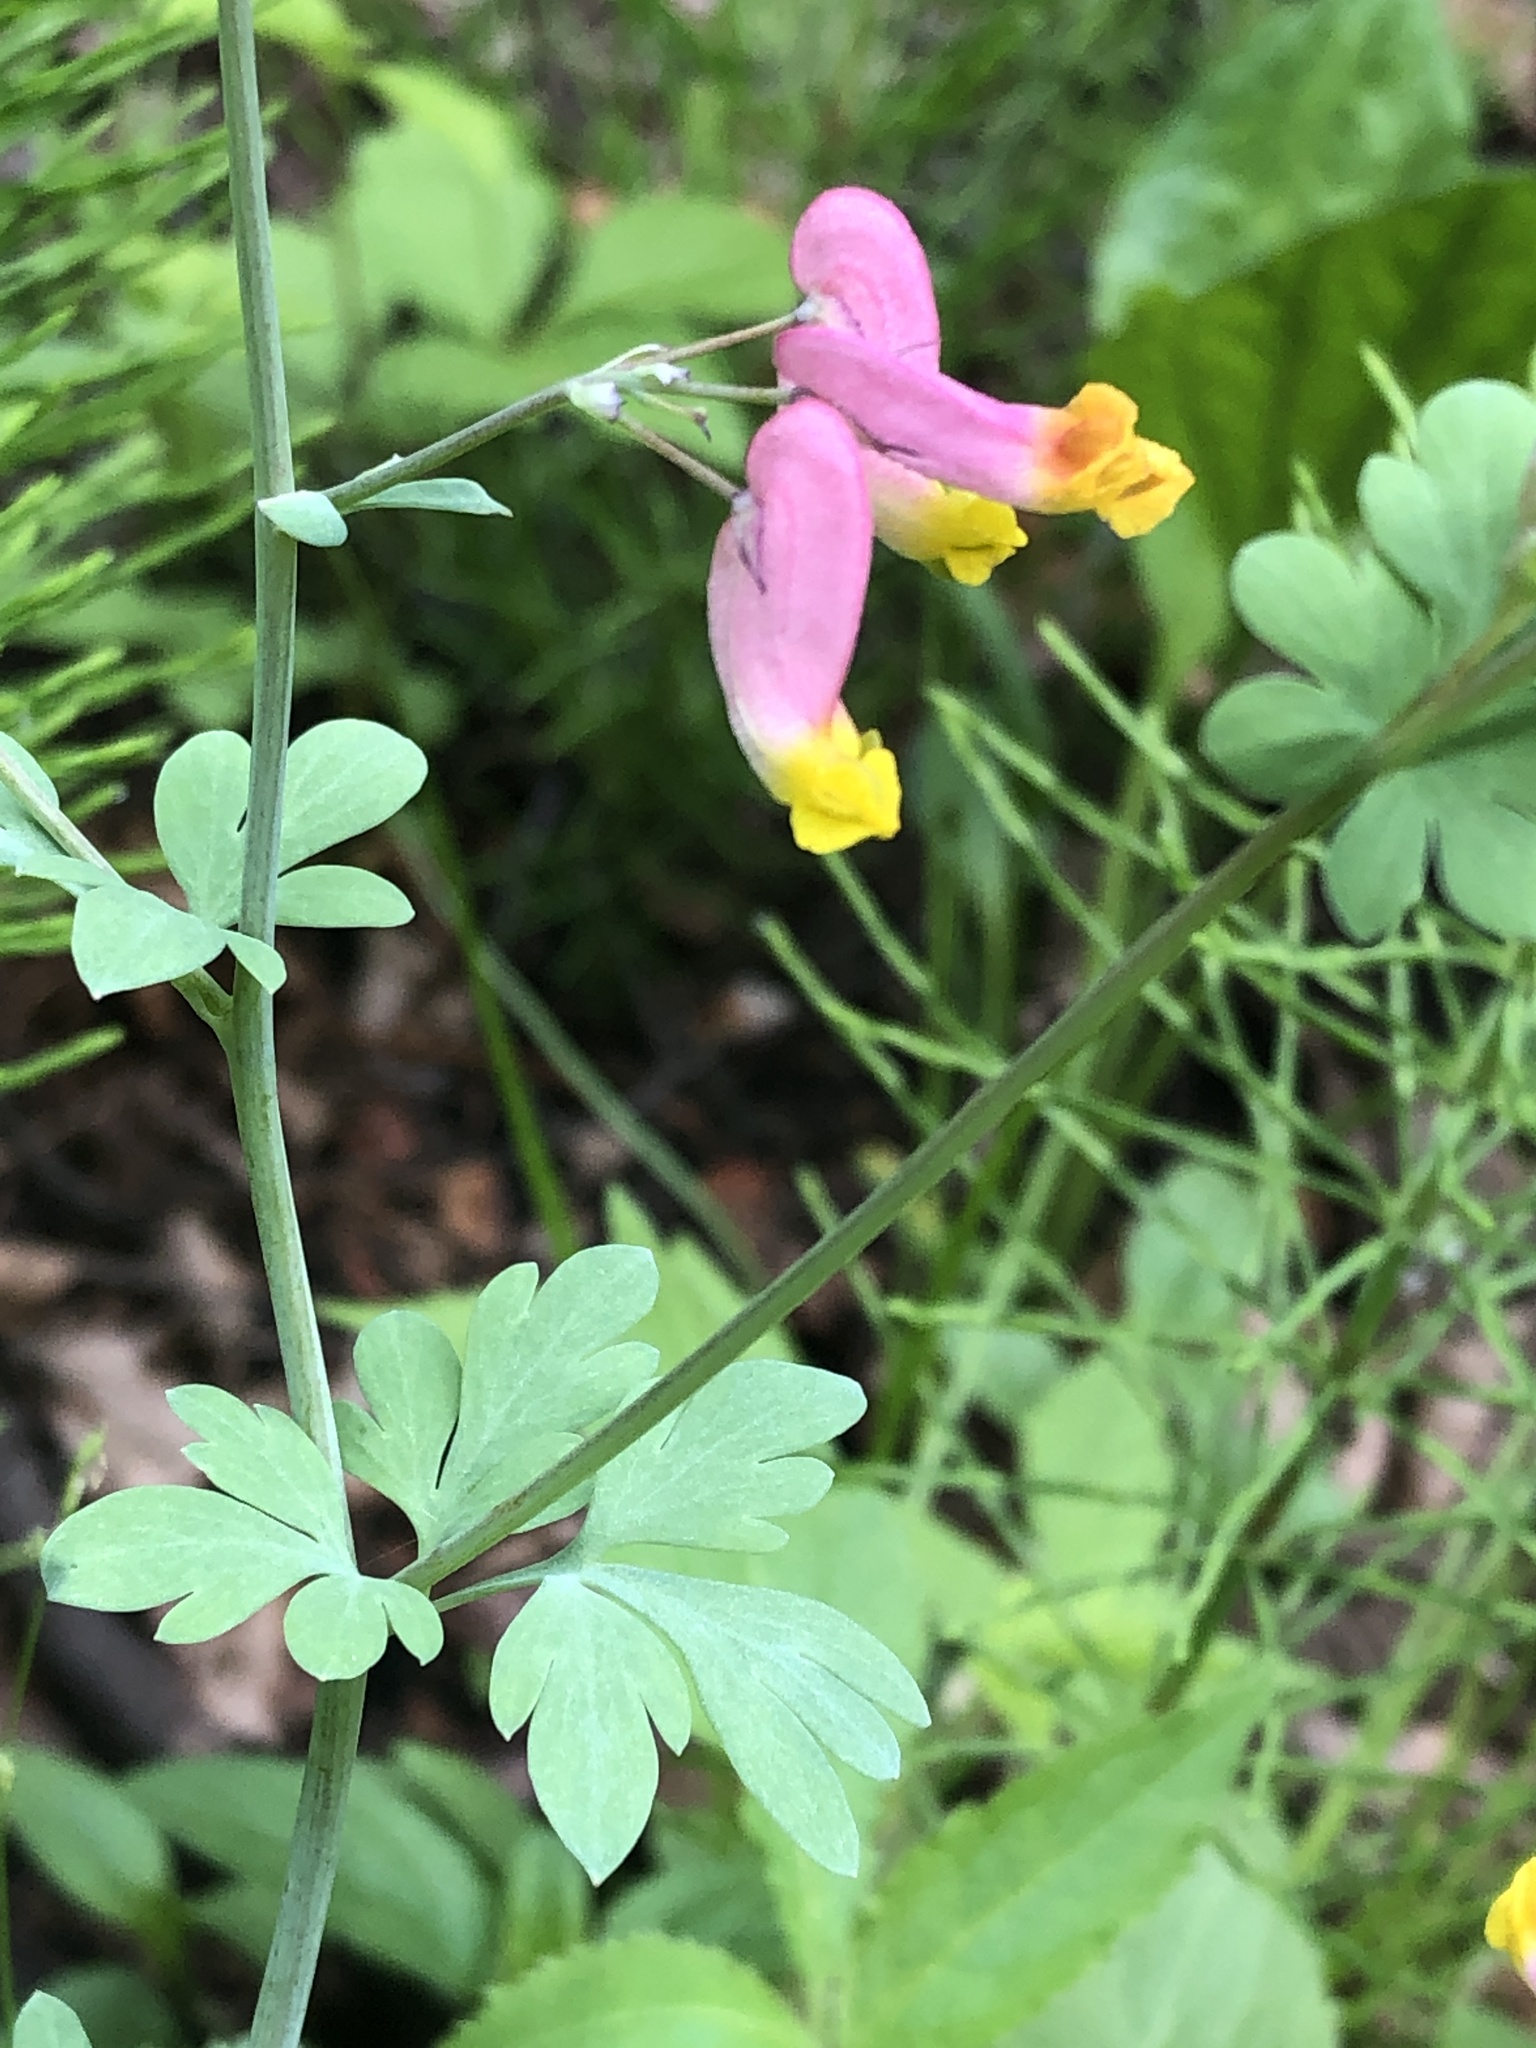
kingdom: Plantae
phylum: Tracheophyta
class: Magnoliopsida
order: Ranunculales
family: Papaveraceae
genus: Capnoides
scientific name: Capnoides sempervirens
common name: Rock harlequin
